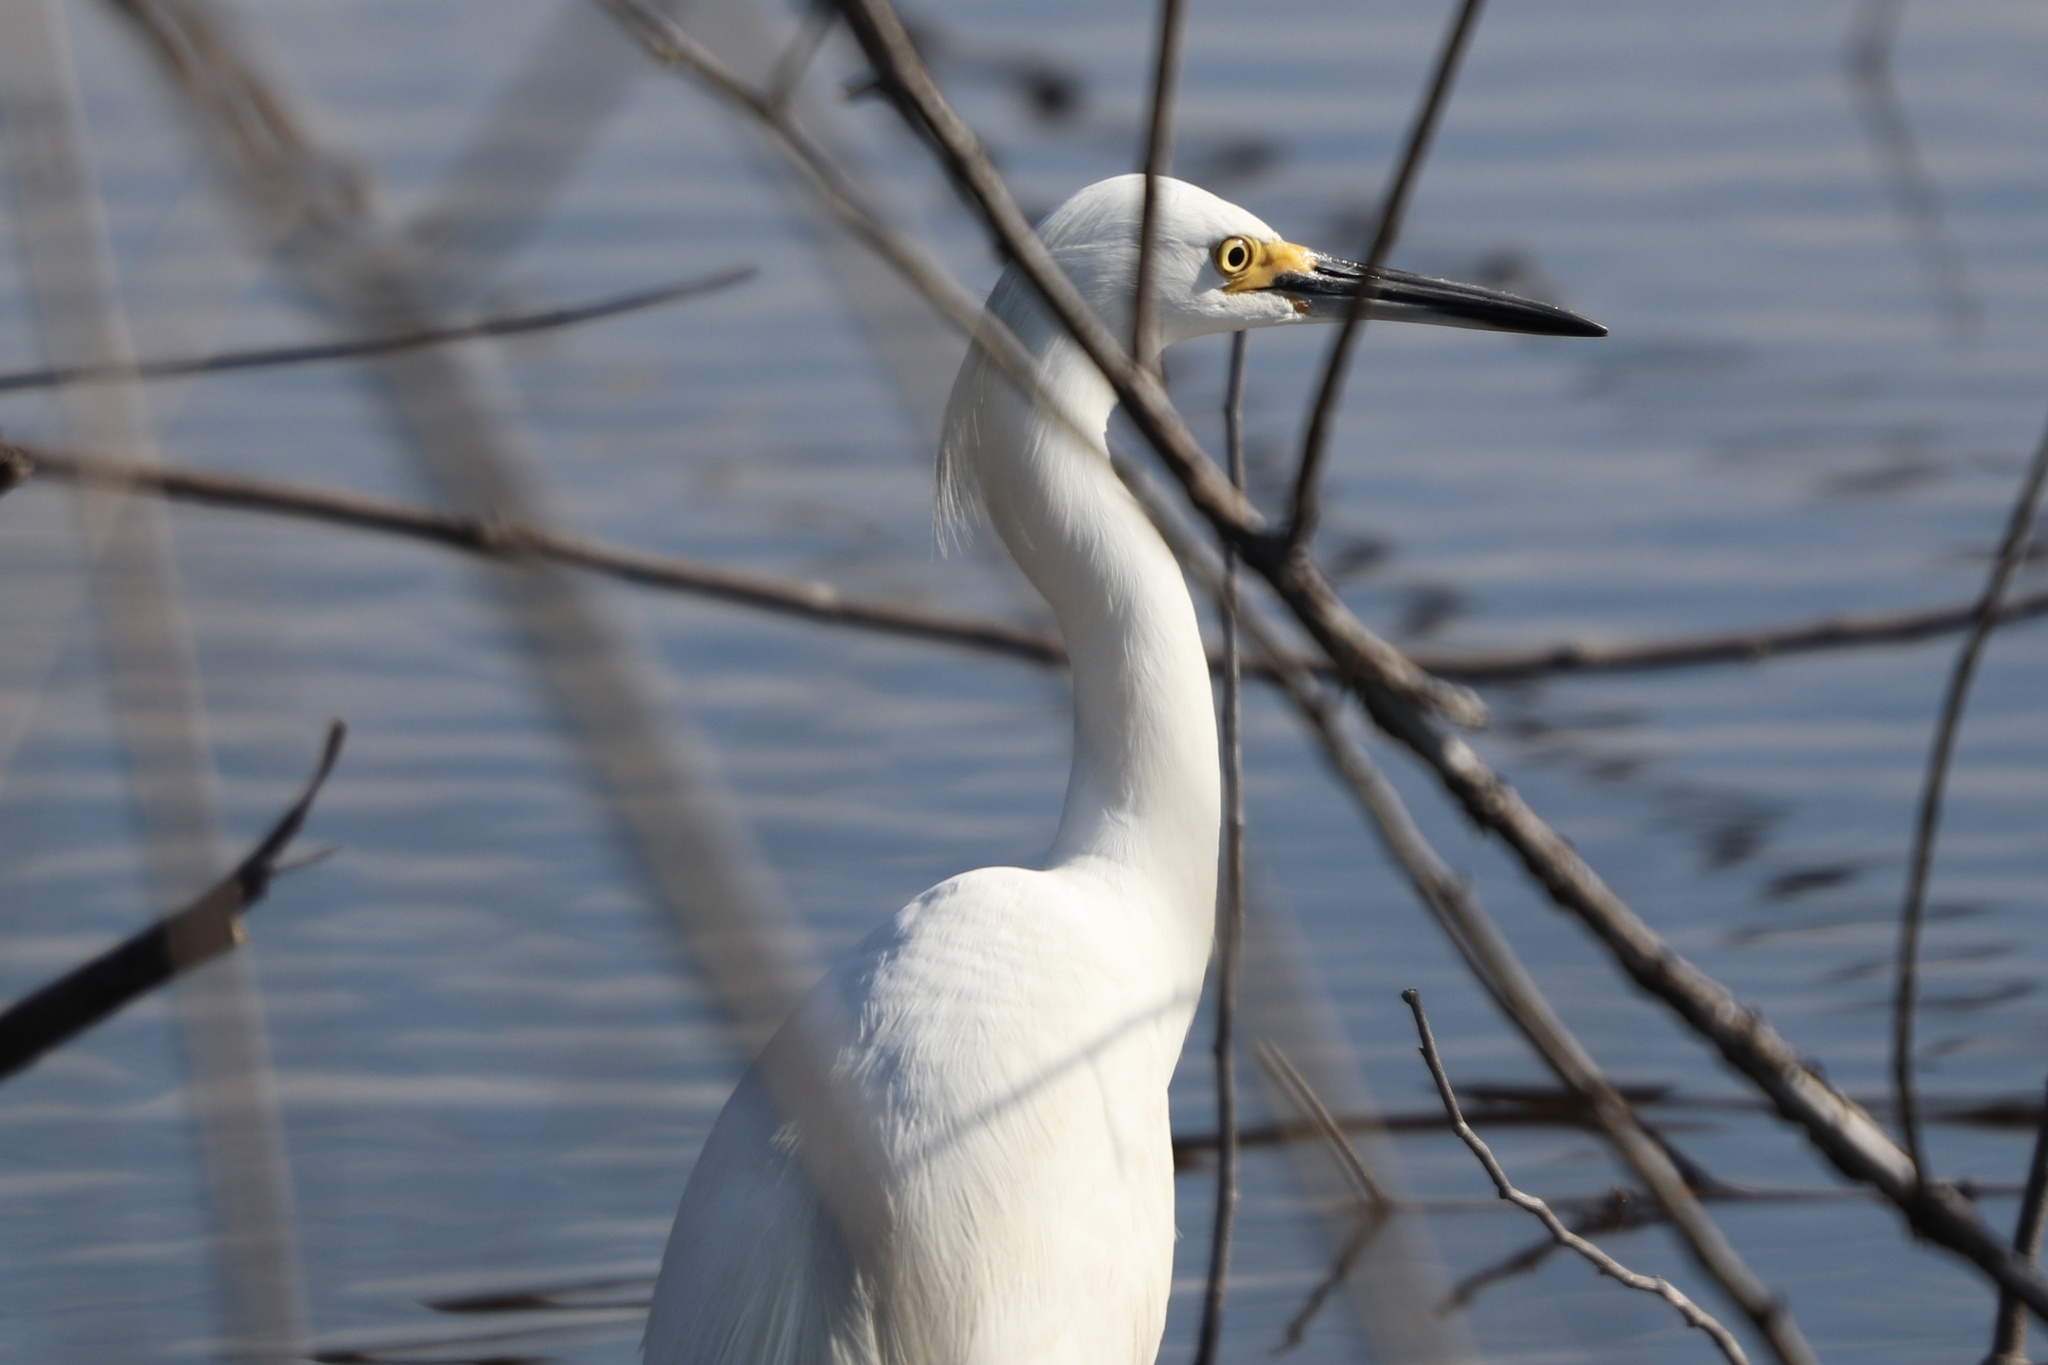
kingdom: Animalia
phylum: Chordata
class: Aves
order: Pelecaniformes
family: Ardeidae
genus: Egretta
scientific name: Egretta thula
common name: Snowy egret
